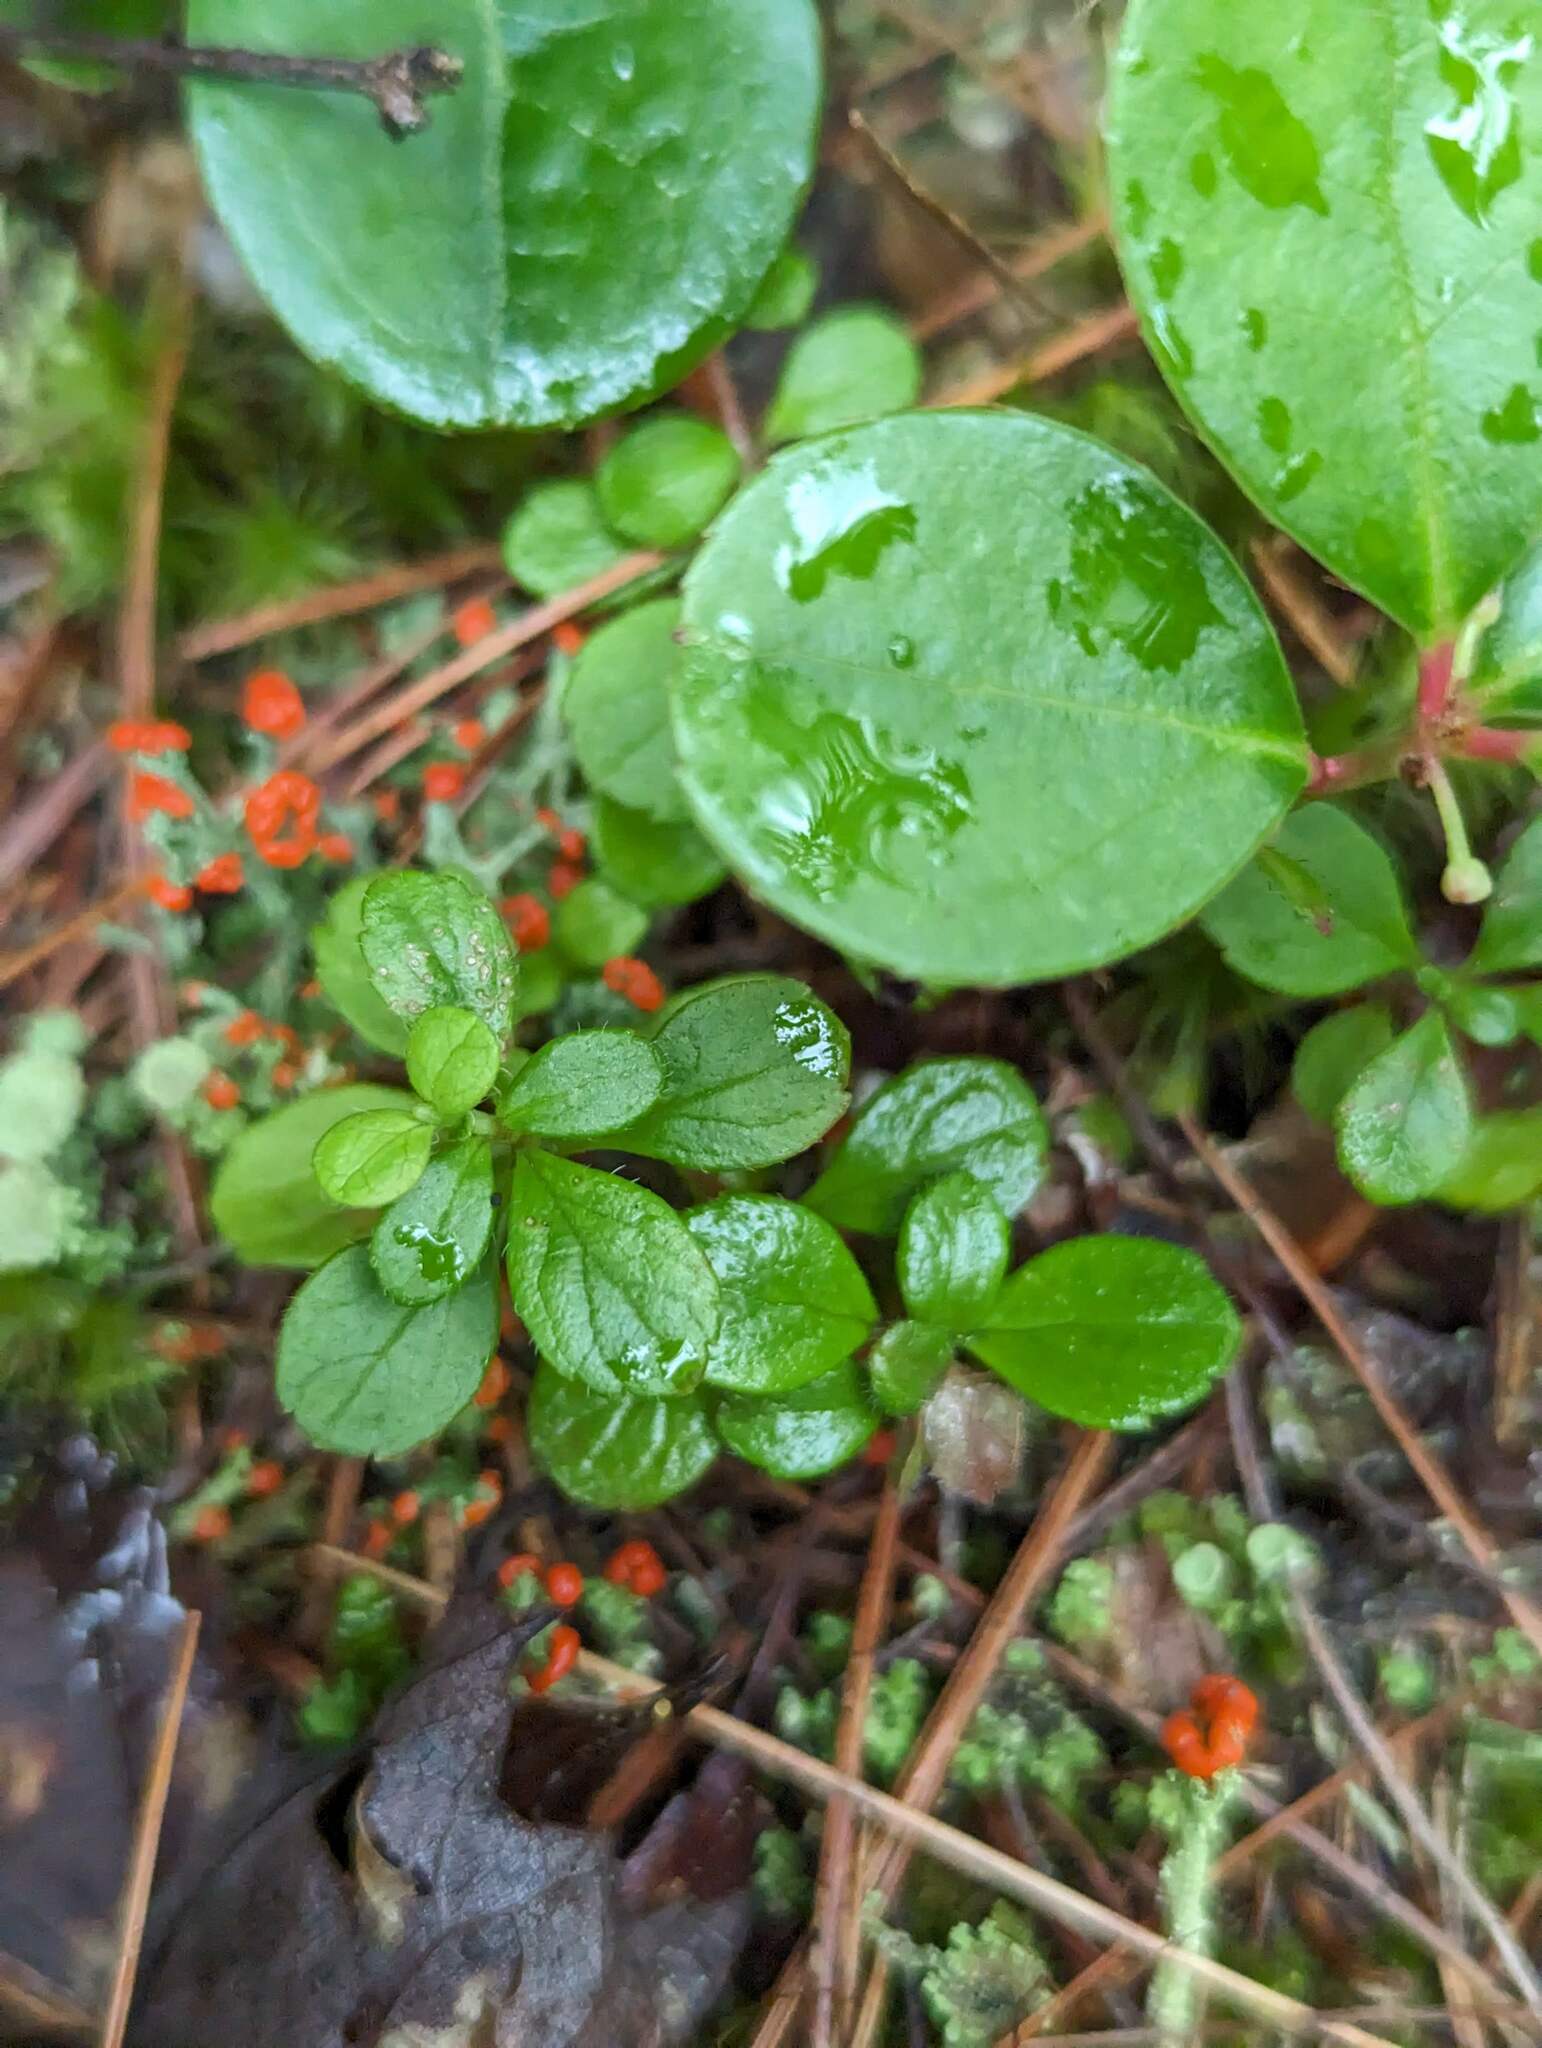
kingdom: Plantae
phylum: Tracheophyta
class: Magnoliopsida
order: Dipsacales
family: Caprifoliaceae
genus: Linnaea
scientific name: Linnaea borealis
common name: Twinflower
